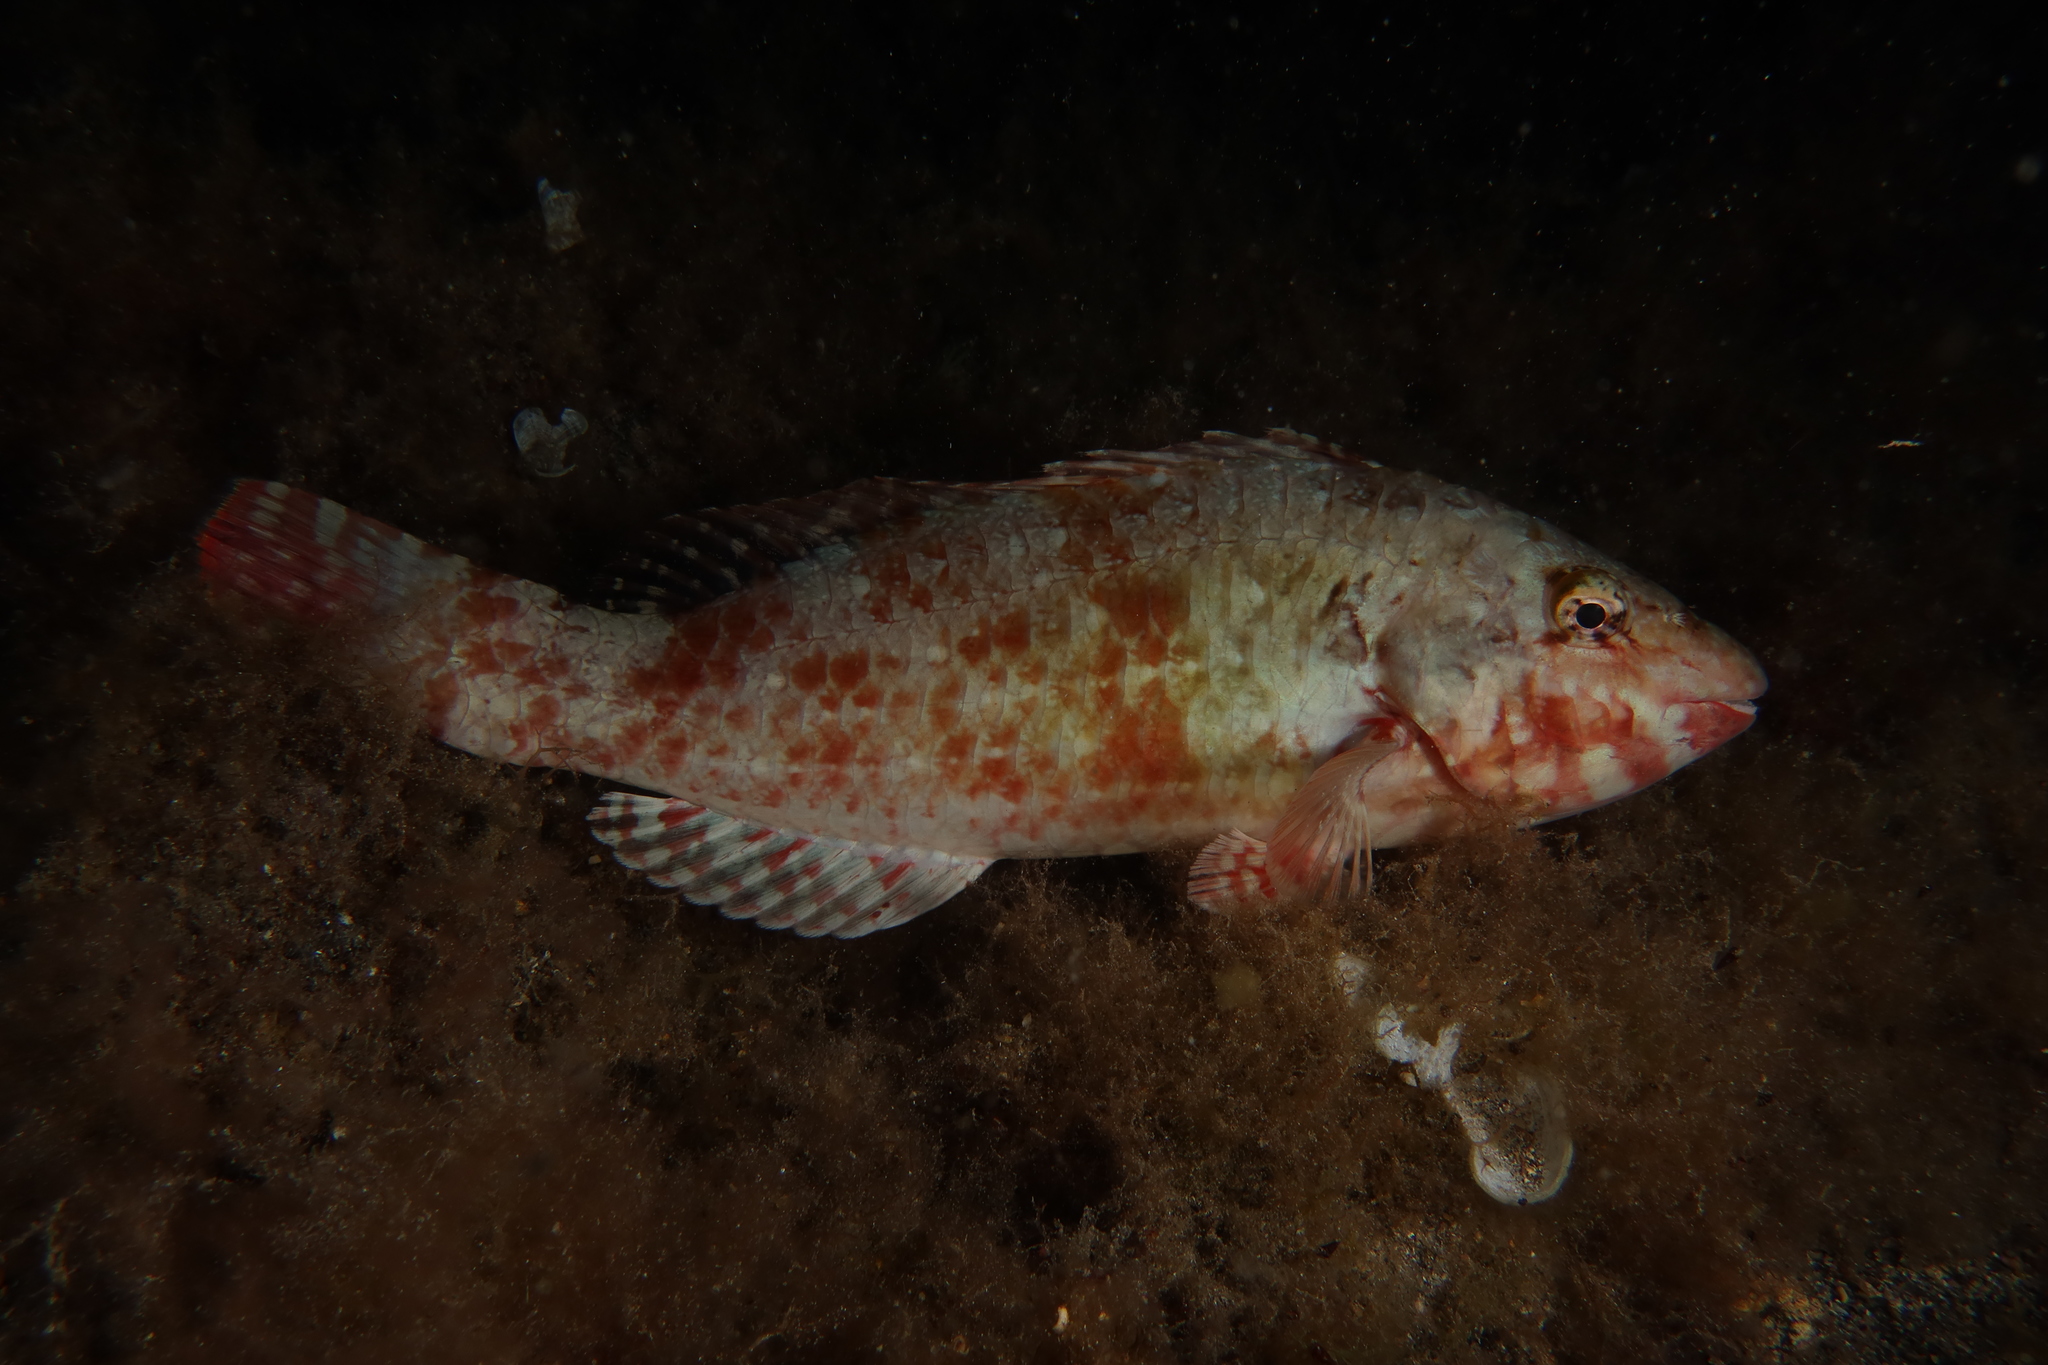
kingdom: Animalia
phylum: Chordata
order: Perciformes
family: Scaridae
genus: Sparisoma
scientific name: Sparisoma cretense
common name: Parrotfish
